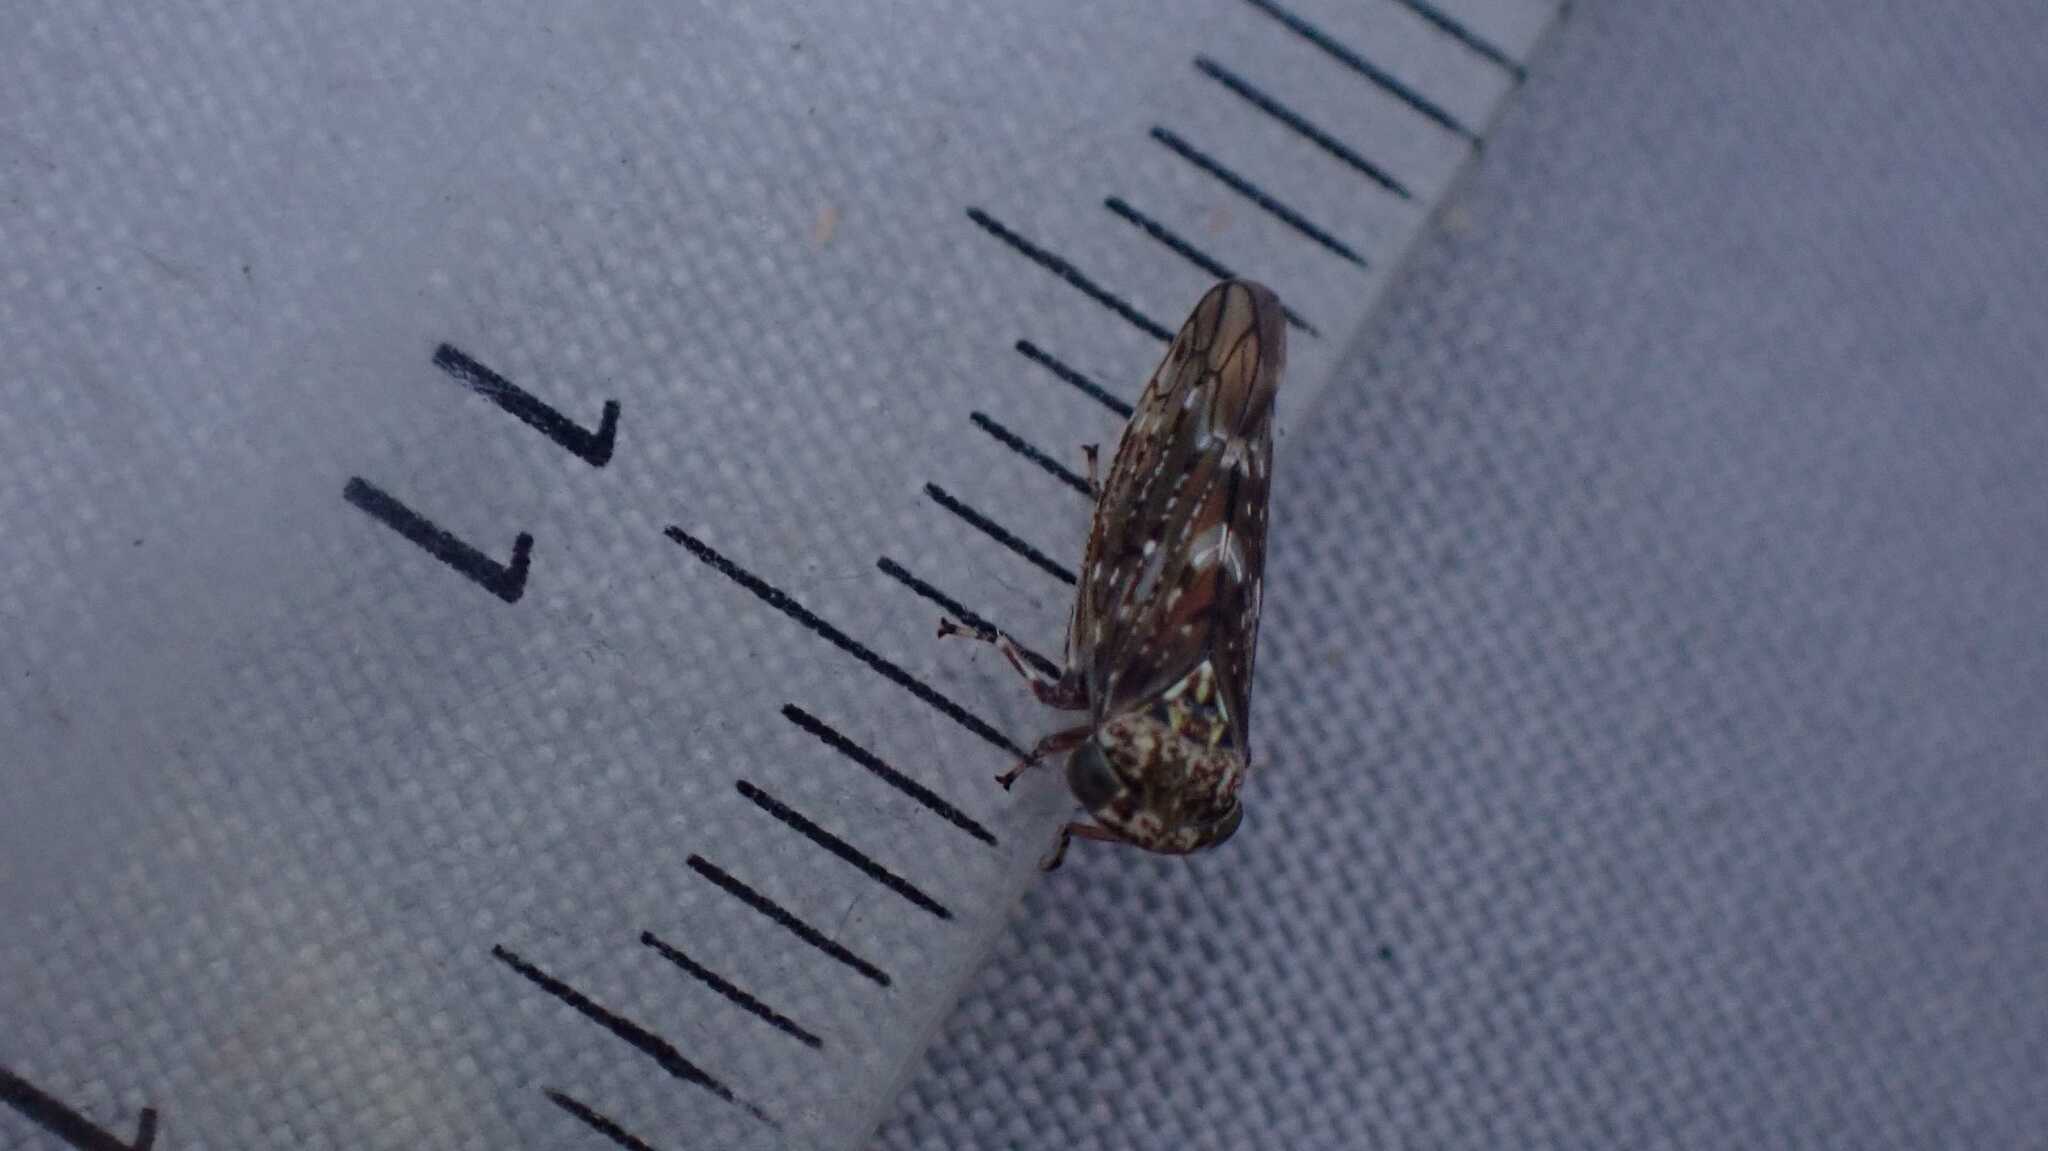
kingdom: Animalia
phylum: Arthropoda
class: Insecta
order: Hemiptera
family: Cicadellidae
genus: Acericerus
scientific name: Acericerus heydenii
